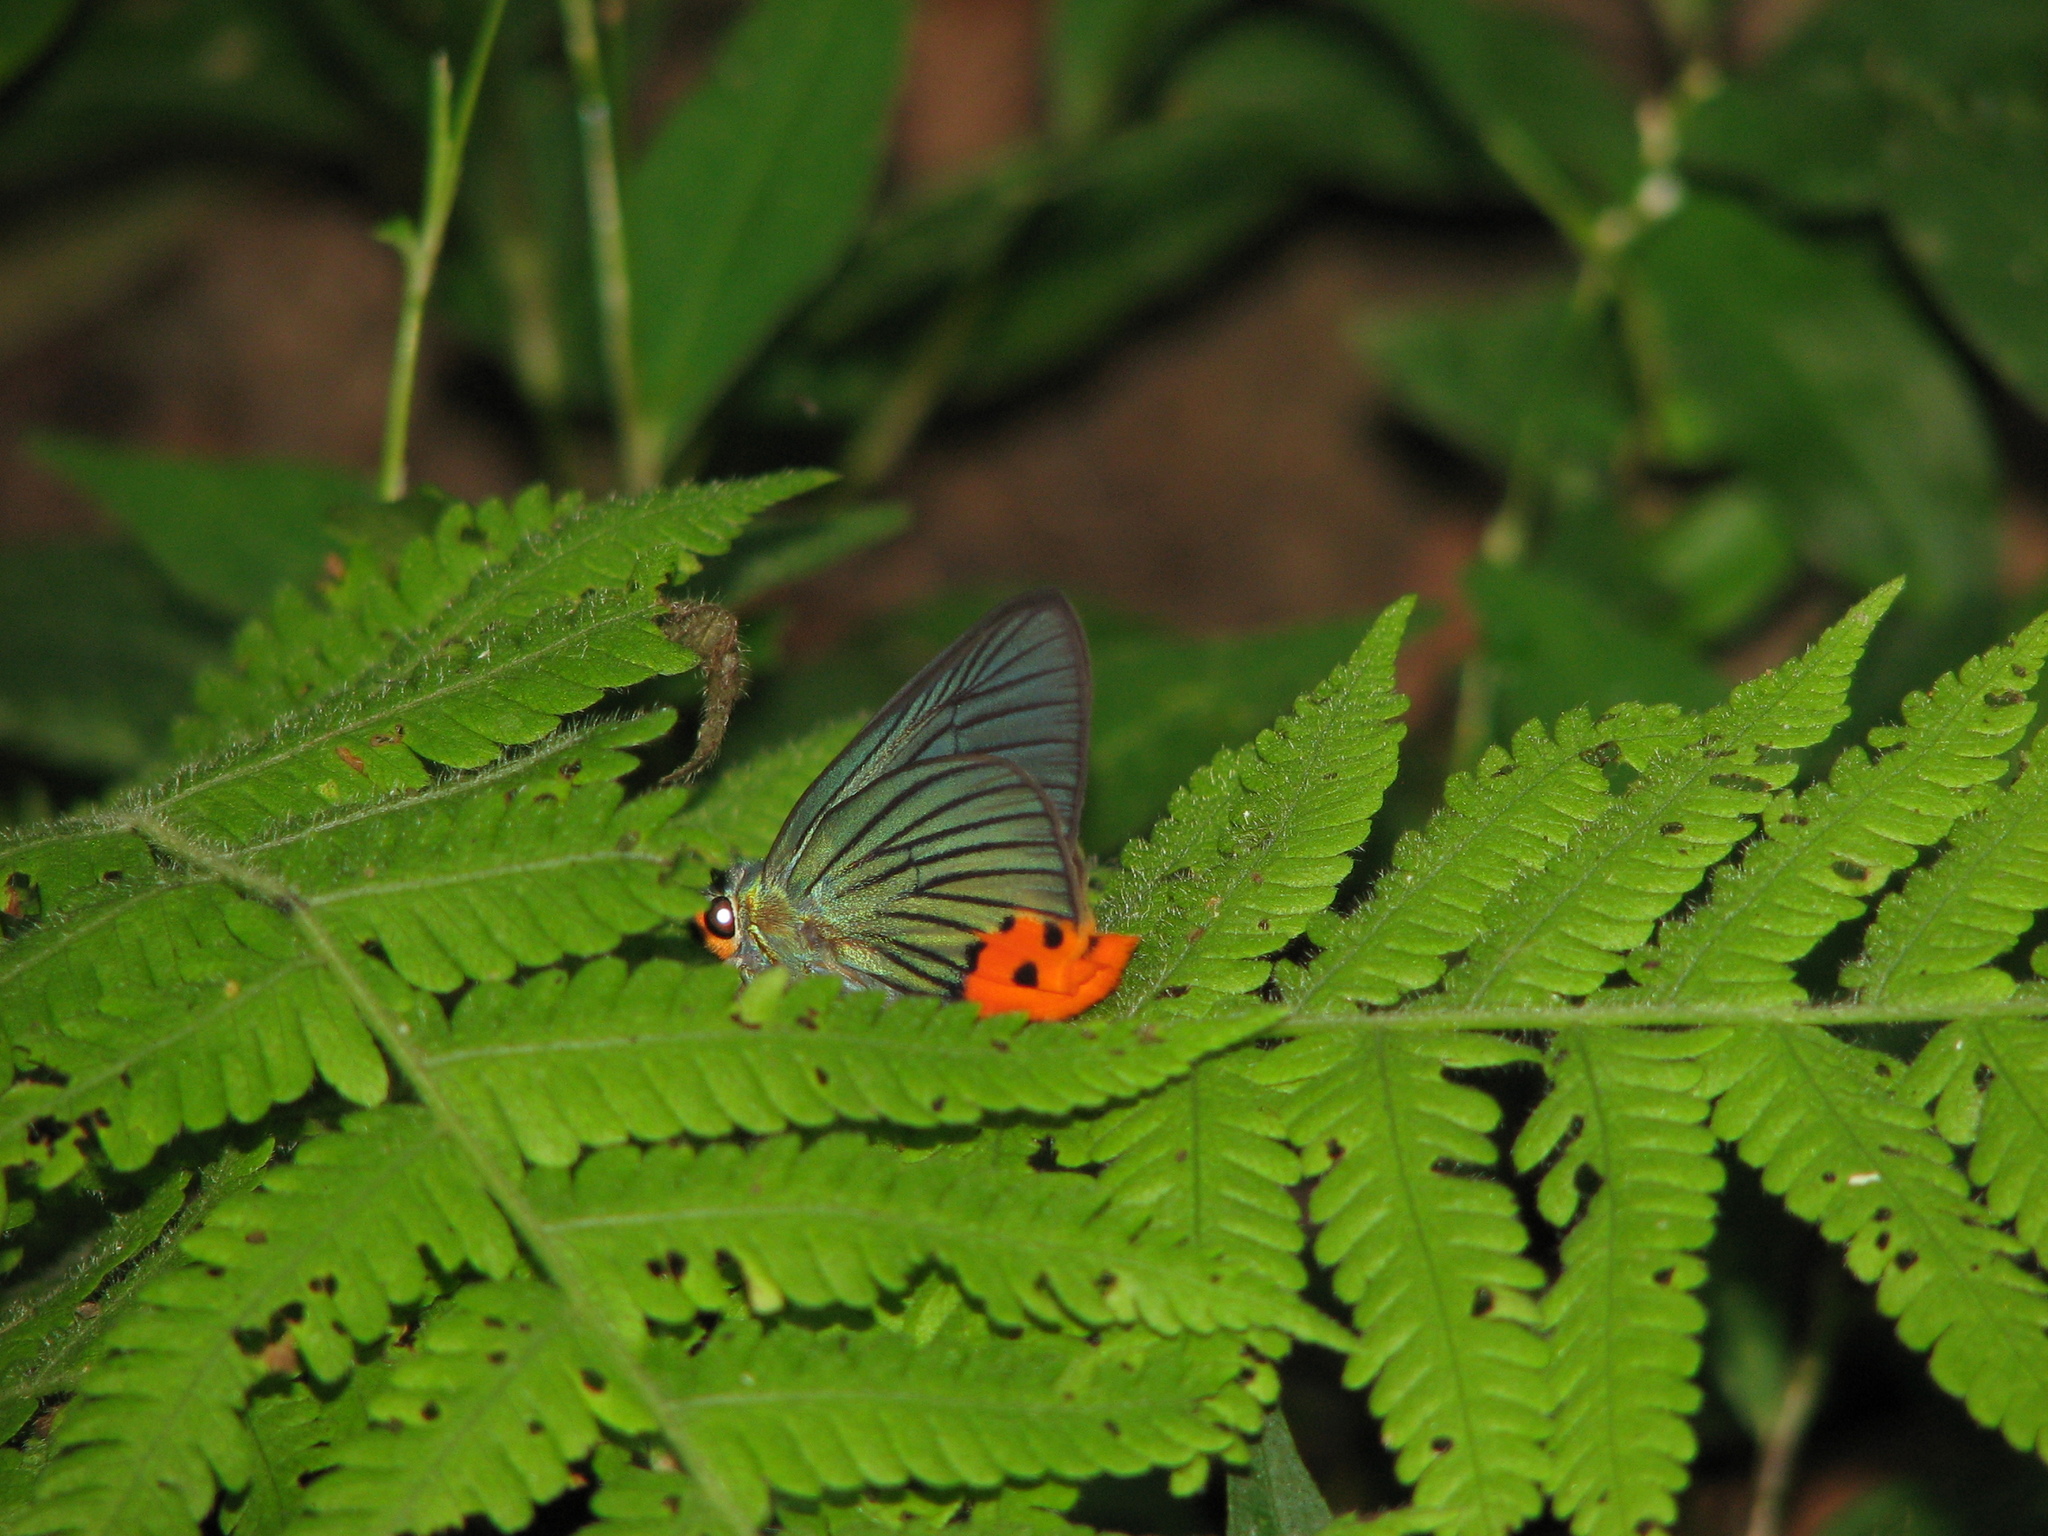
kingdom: Animalia
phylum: Arthropoda
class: Insecta
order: Lepidoptera
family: Hesperiidae
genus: Choaspes
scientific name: Choaspes benjaminii
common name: Indian awlking
